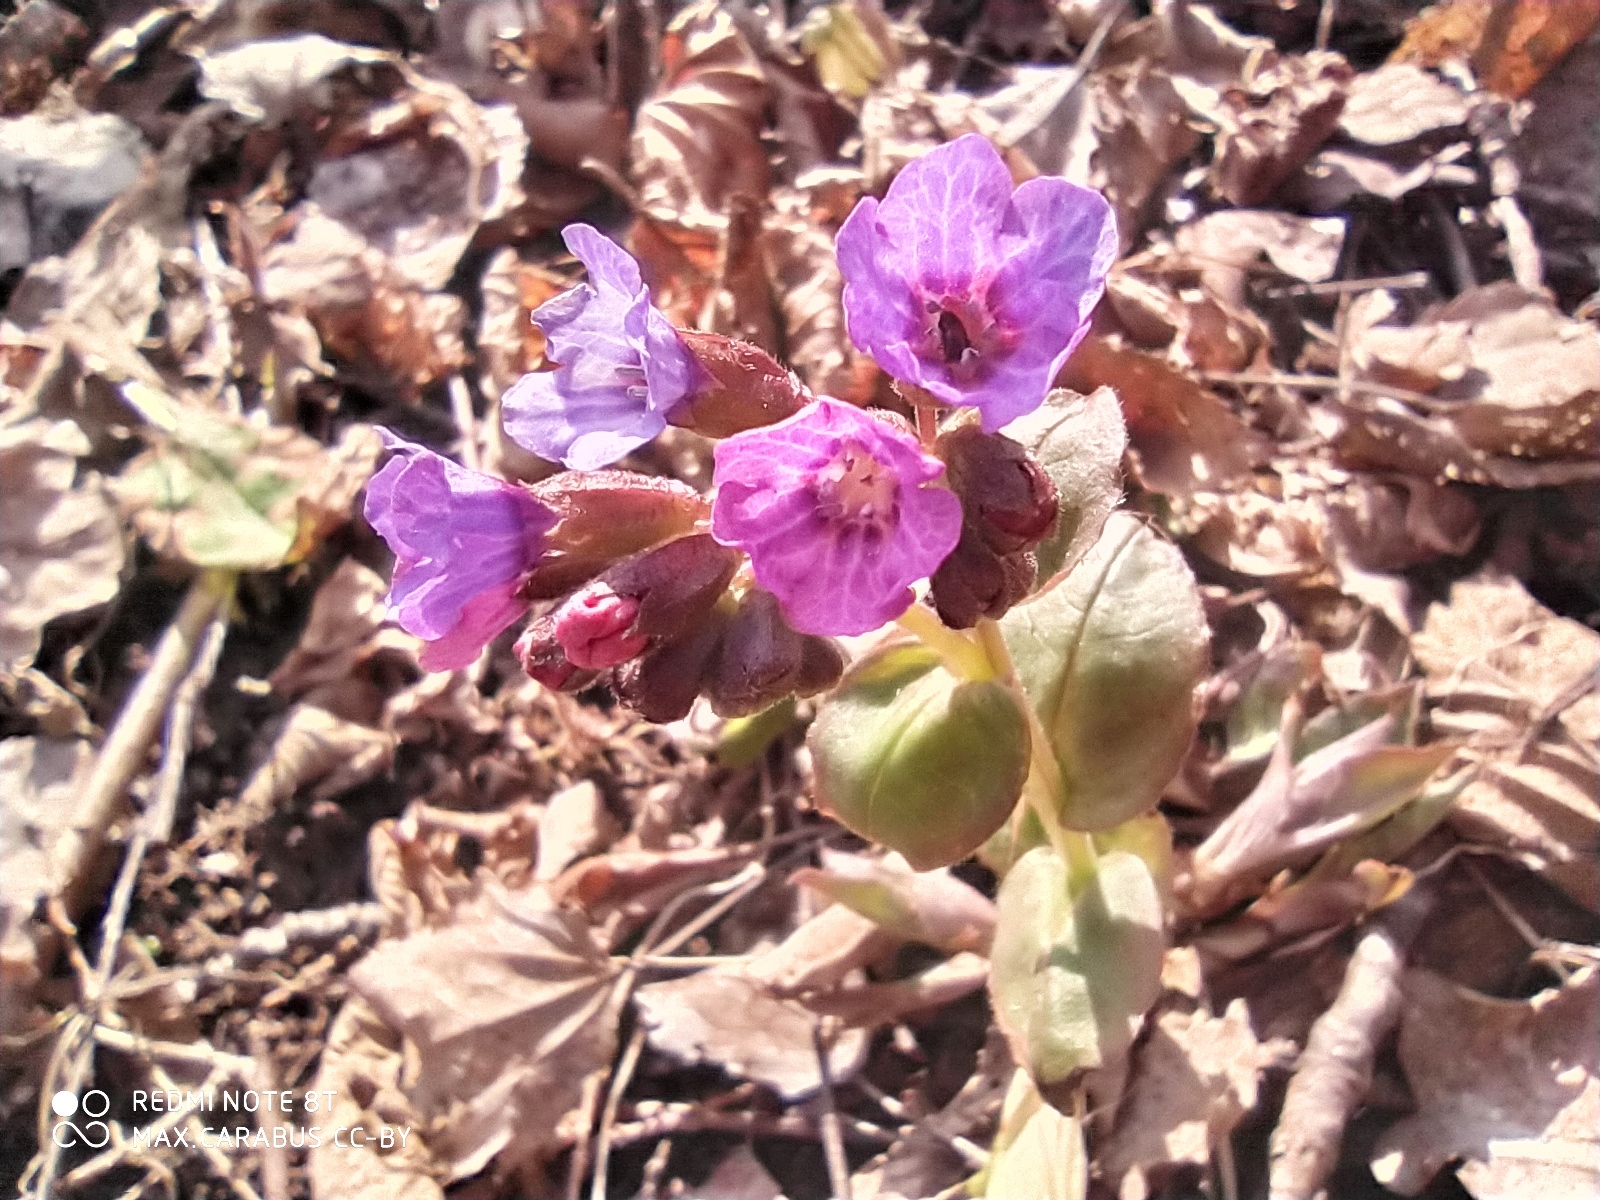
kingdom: Plantae
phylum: Tracheophyta
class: Magnoliopsida
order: Boraginales
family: Boraginaceae
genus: Pulmonaria
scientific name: Pulmonaria obscura
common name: Suffolk lungwort
